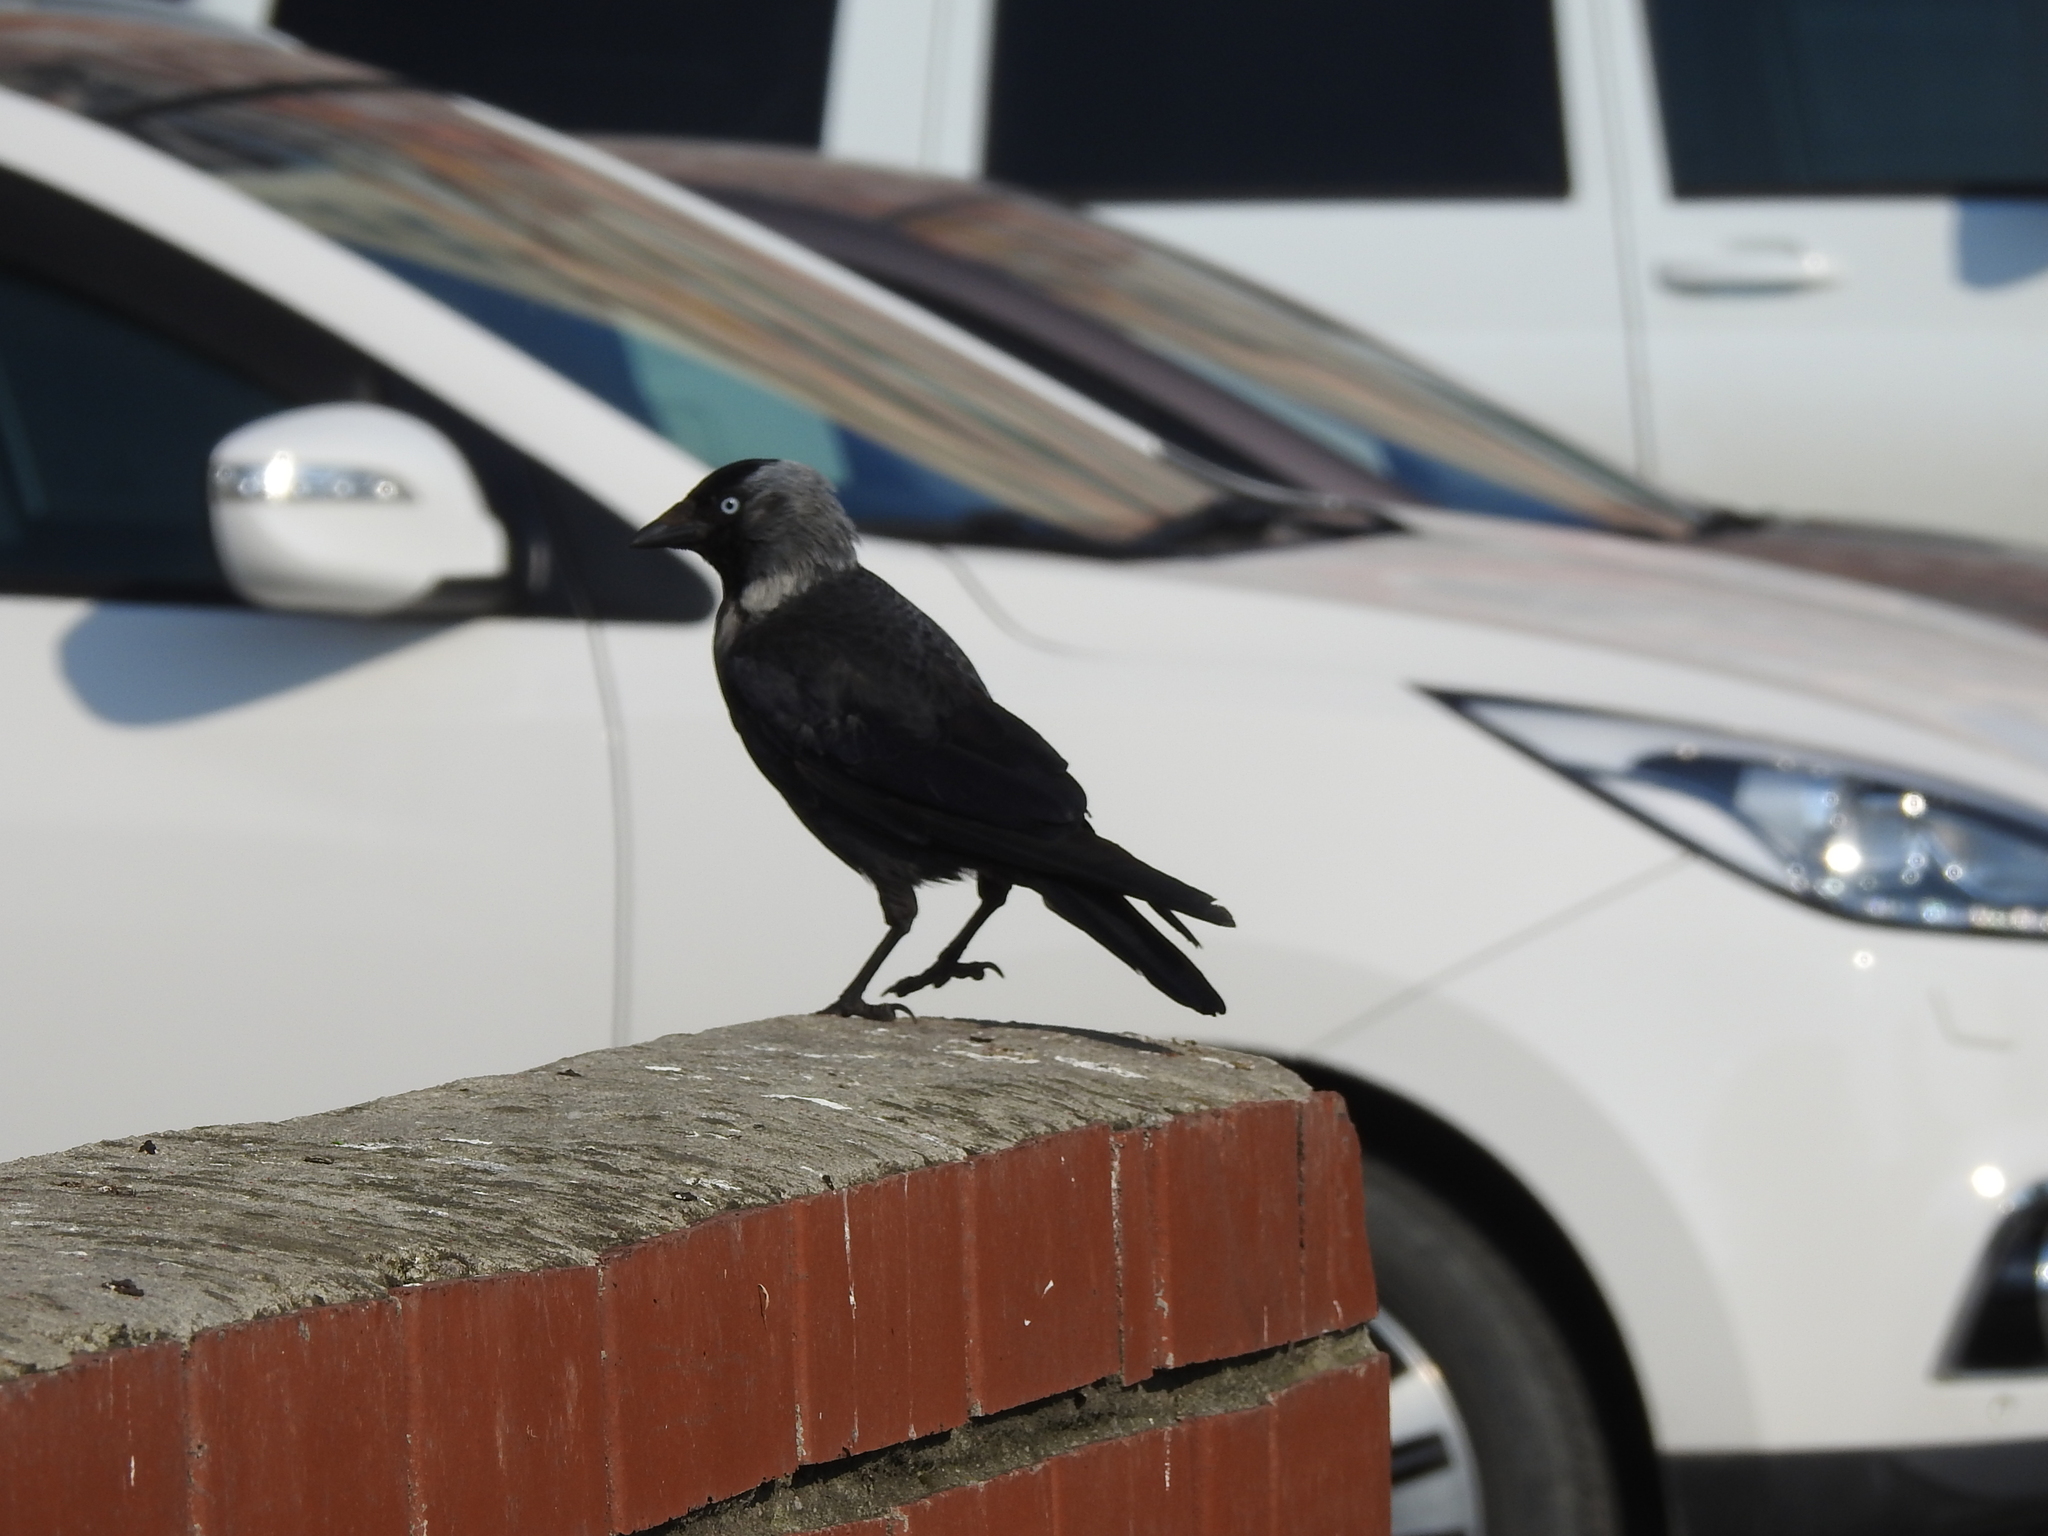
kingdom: Animalia
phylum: Chordata
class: Aves
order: Passeriformes
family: Corvidae
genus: Coloeus
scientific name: Coloeus monedula
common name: Western jackdaw
